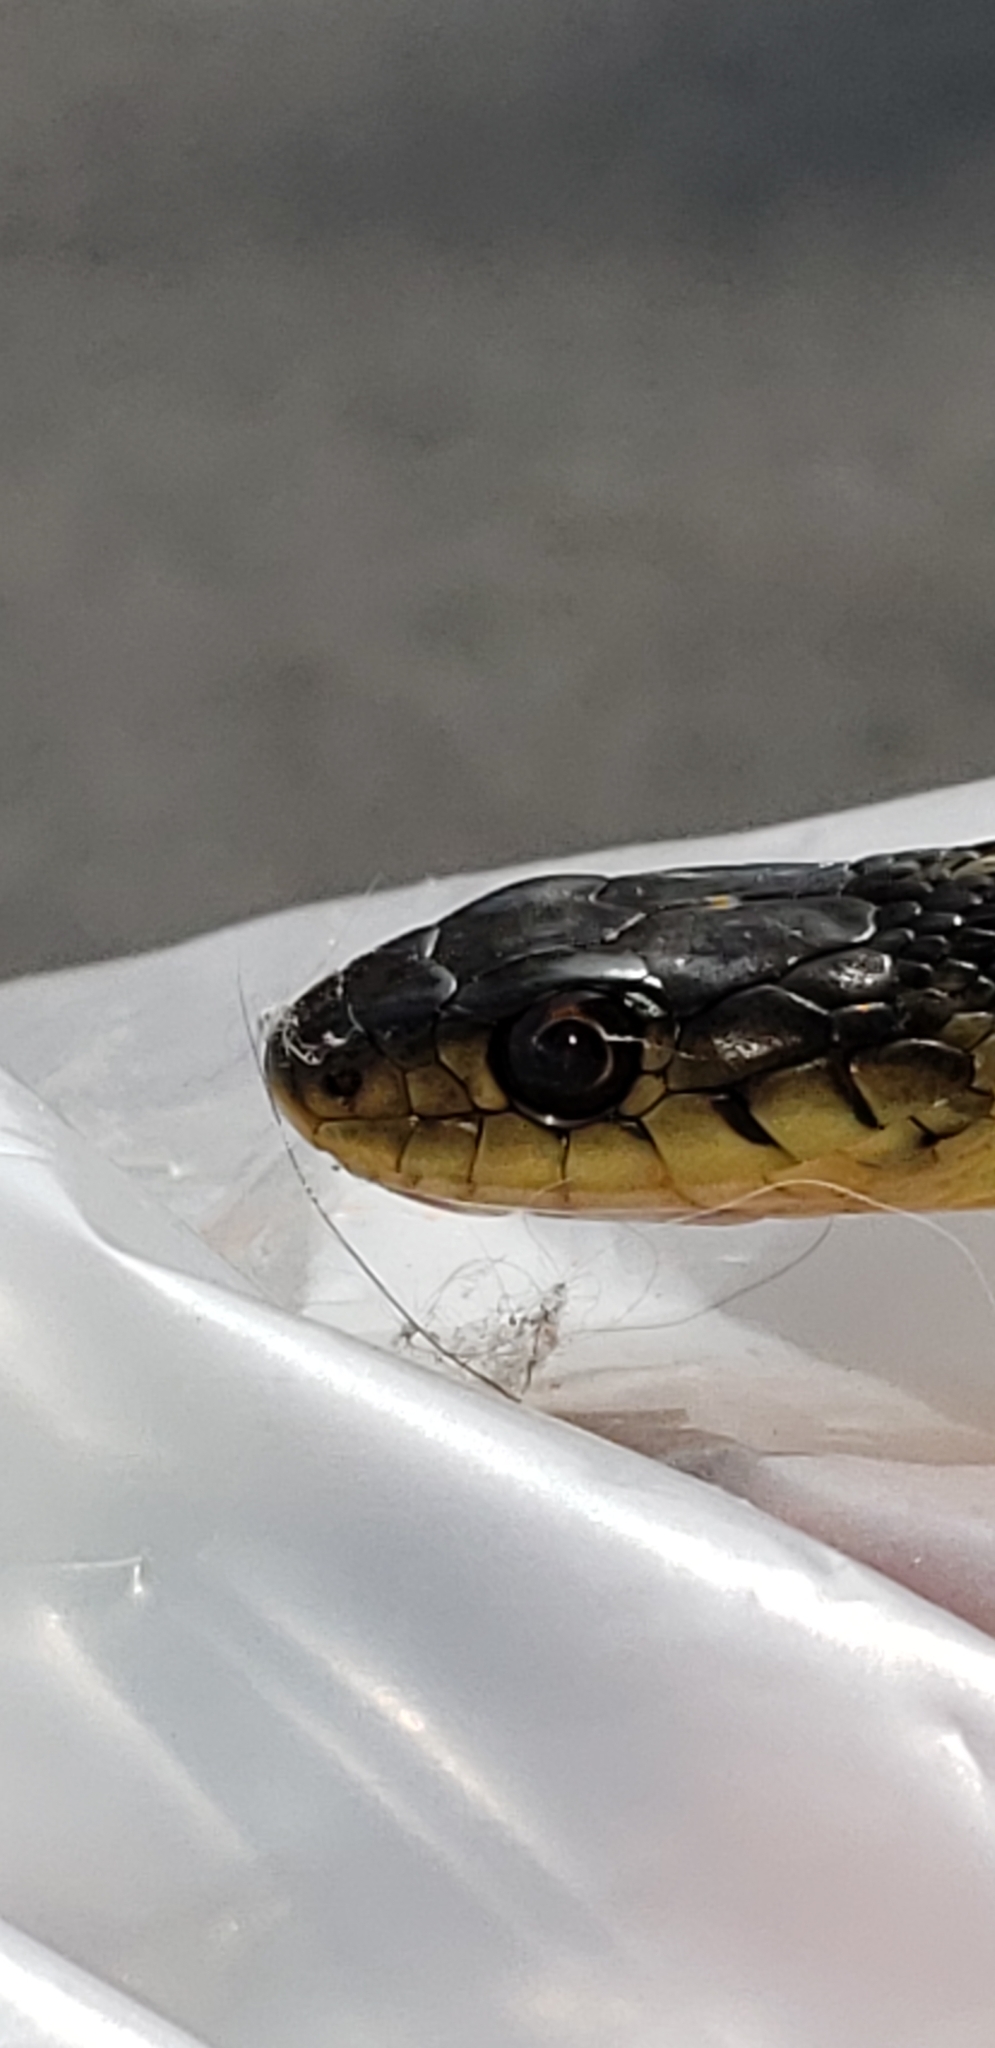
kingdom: Animalia
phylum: Chordata
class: Squamata
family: Colubridae
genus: Thamnophis
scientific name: Thamnophis sirtalis
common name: Common garter snake
